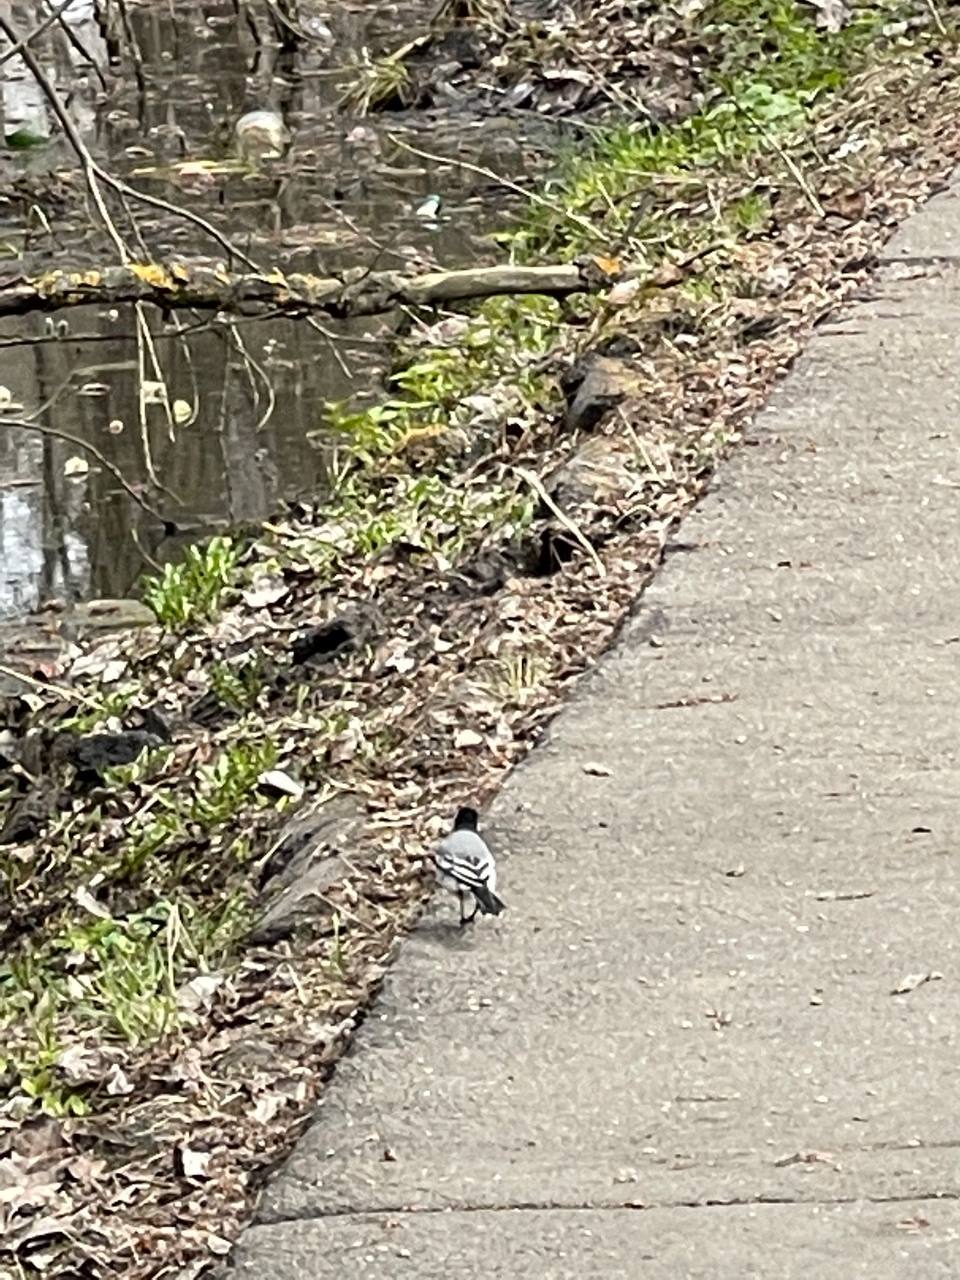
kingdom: Animalia
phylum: Chordata
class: Aves
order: Passeriformes
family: Motacillidae
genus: Motacilla
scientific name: Motacilla alba
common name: White wagtail
